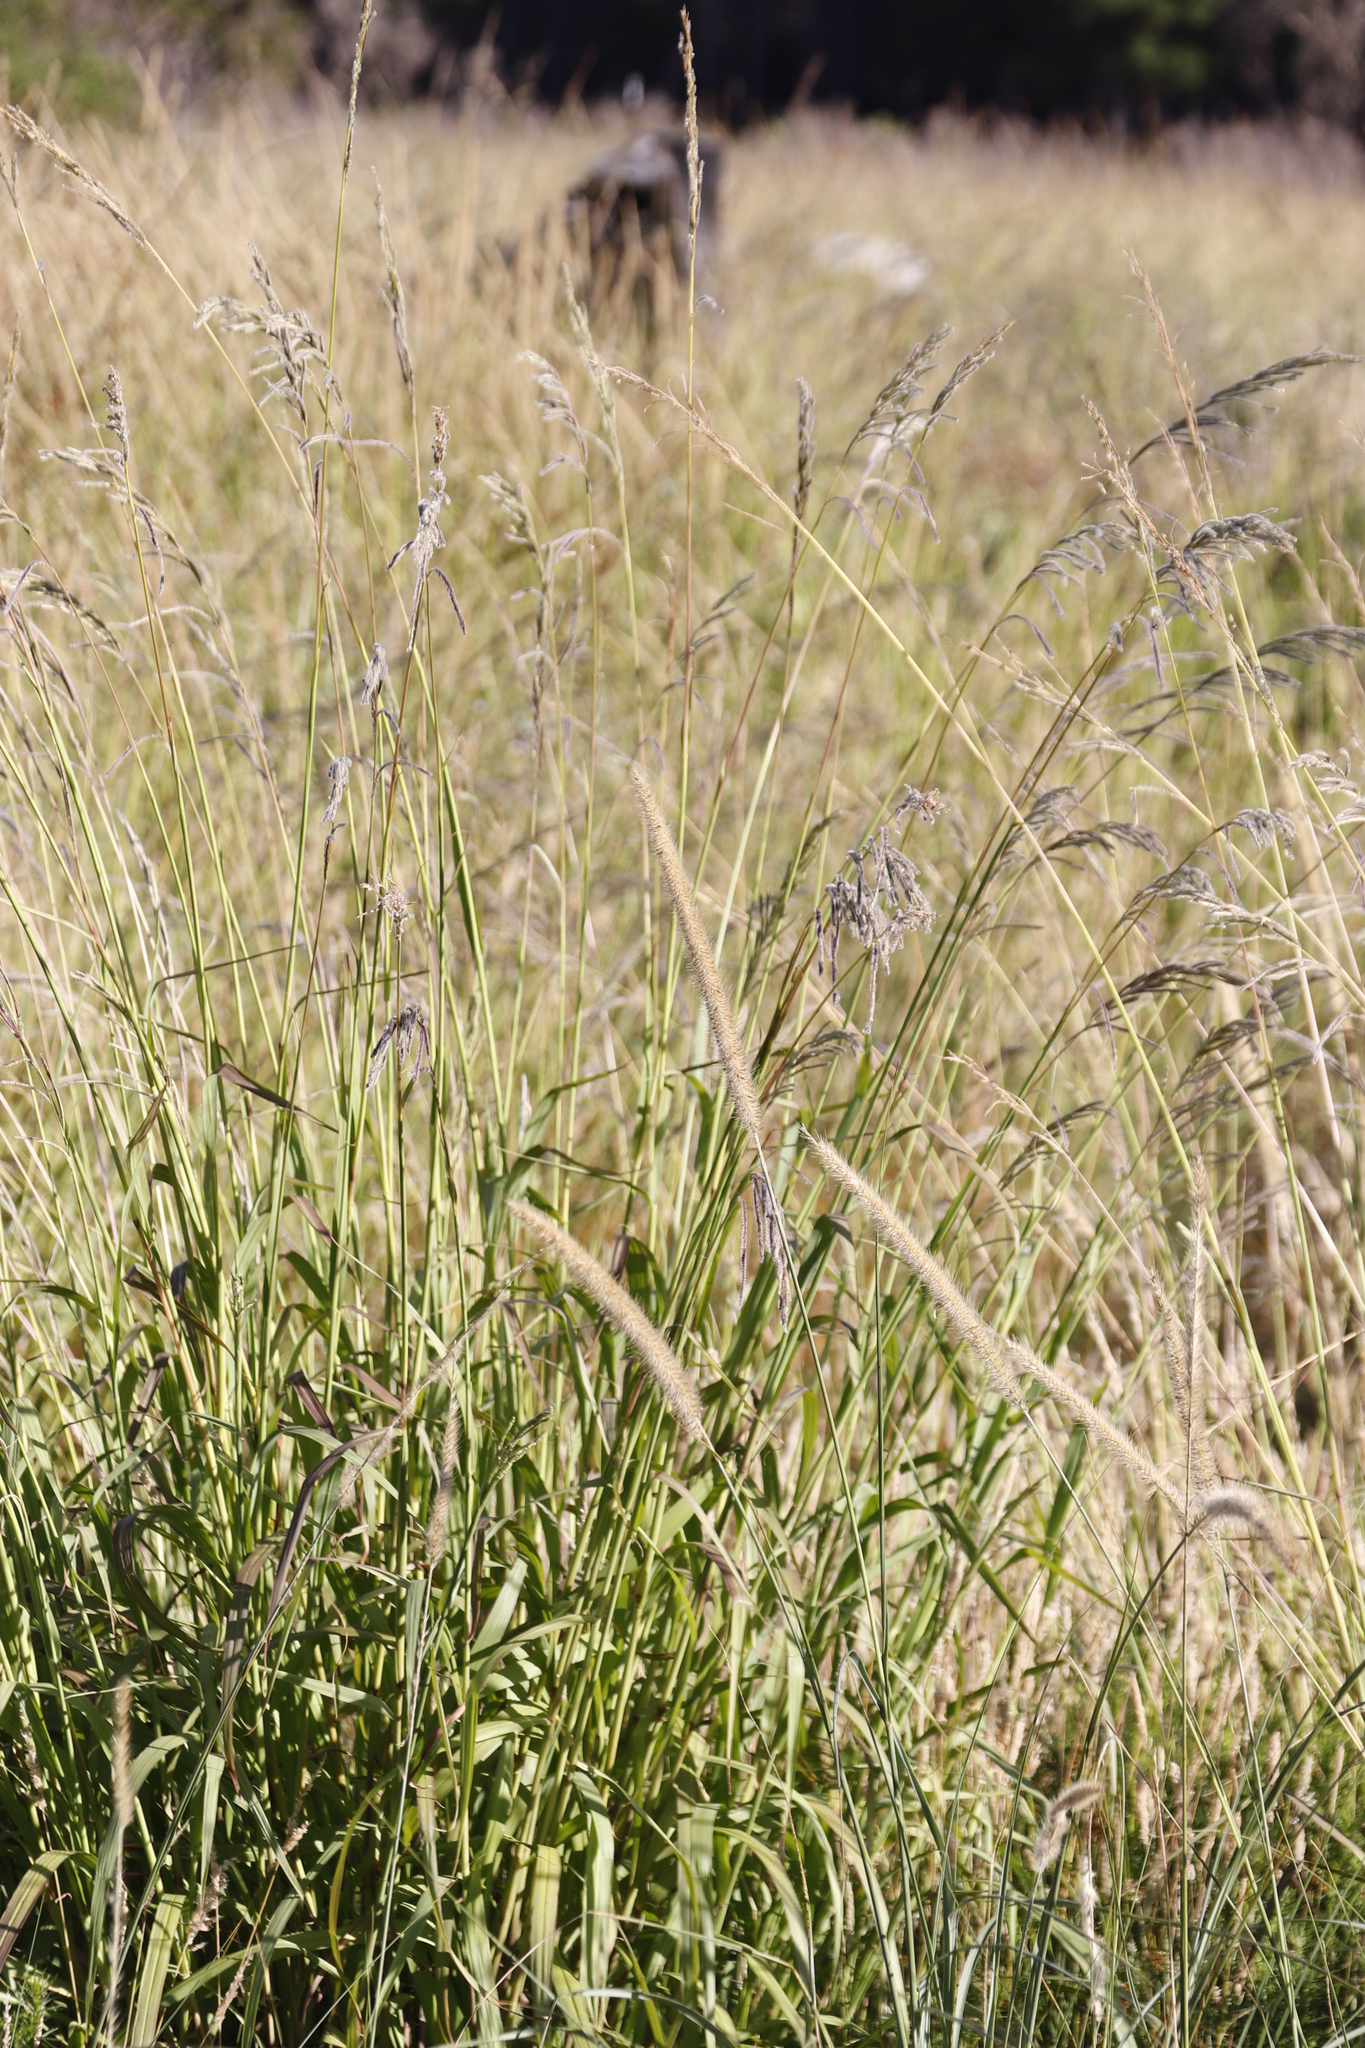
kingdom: Plantae
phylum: Tracheophyta
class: Liliopsida
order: Poales
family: Poaceae
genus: Paspalum
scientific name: Paspalum urvillei
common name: Vasey's grass
